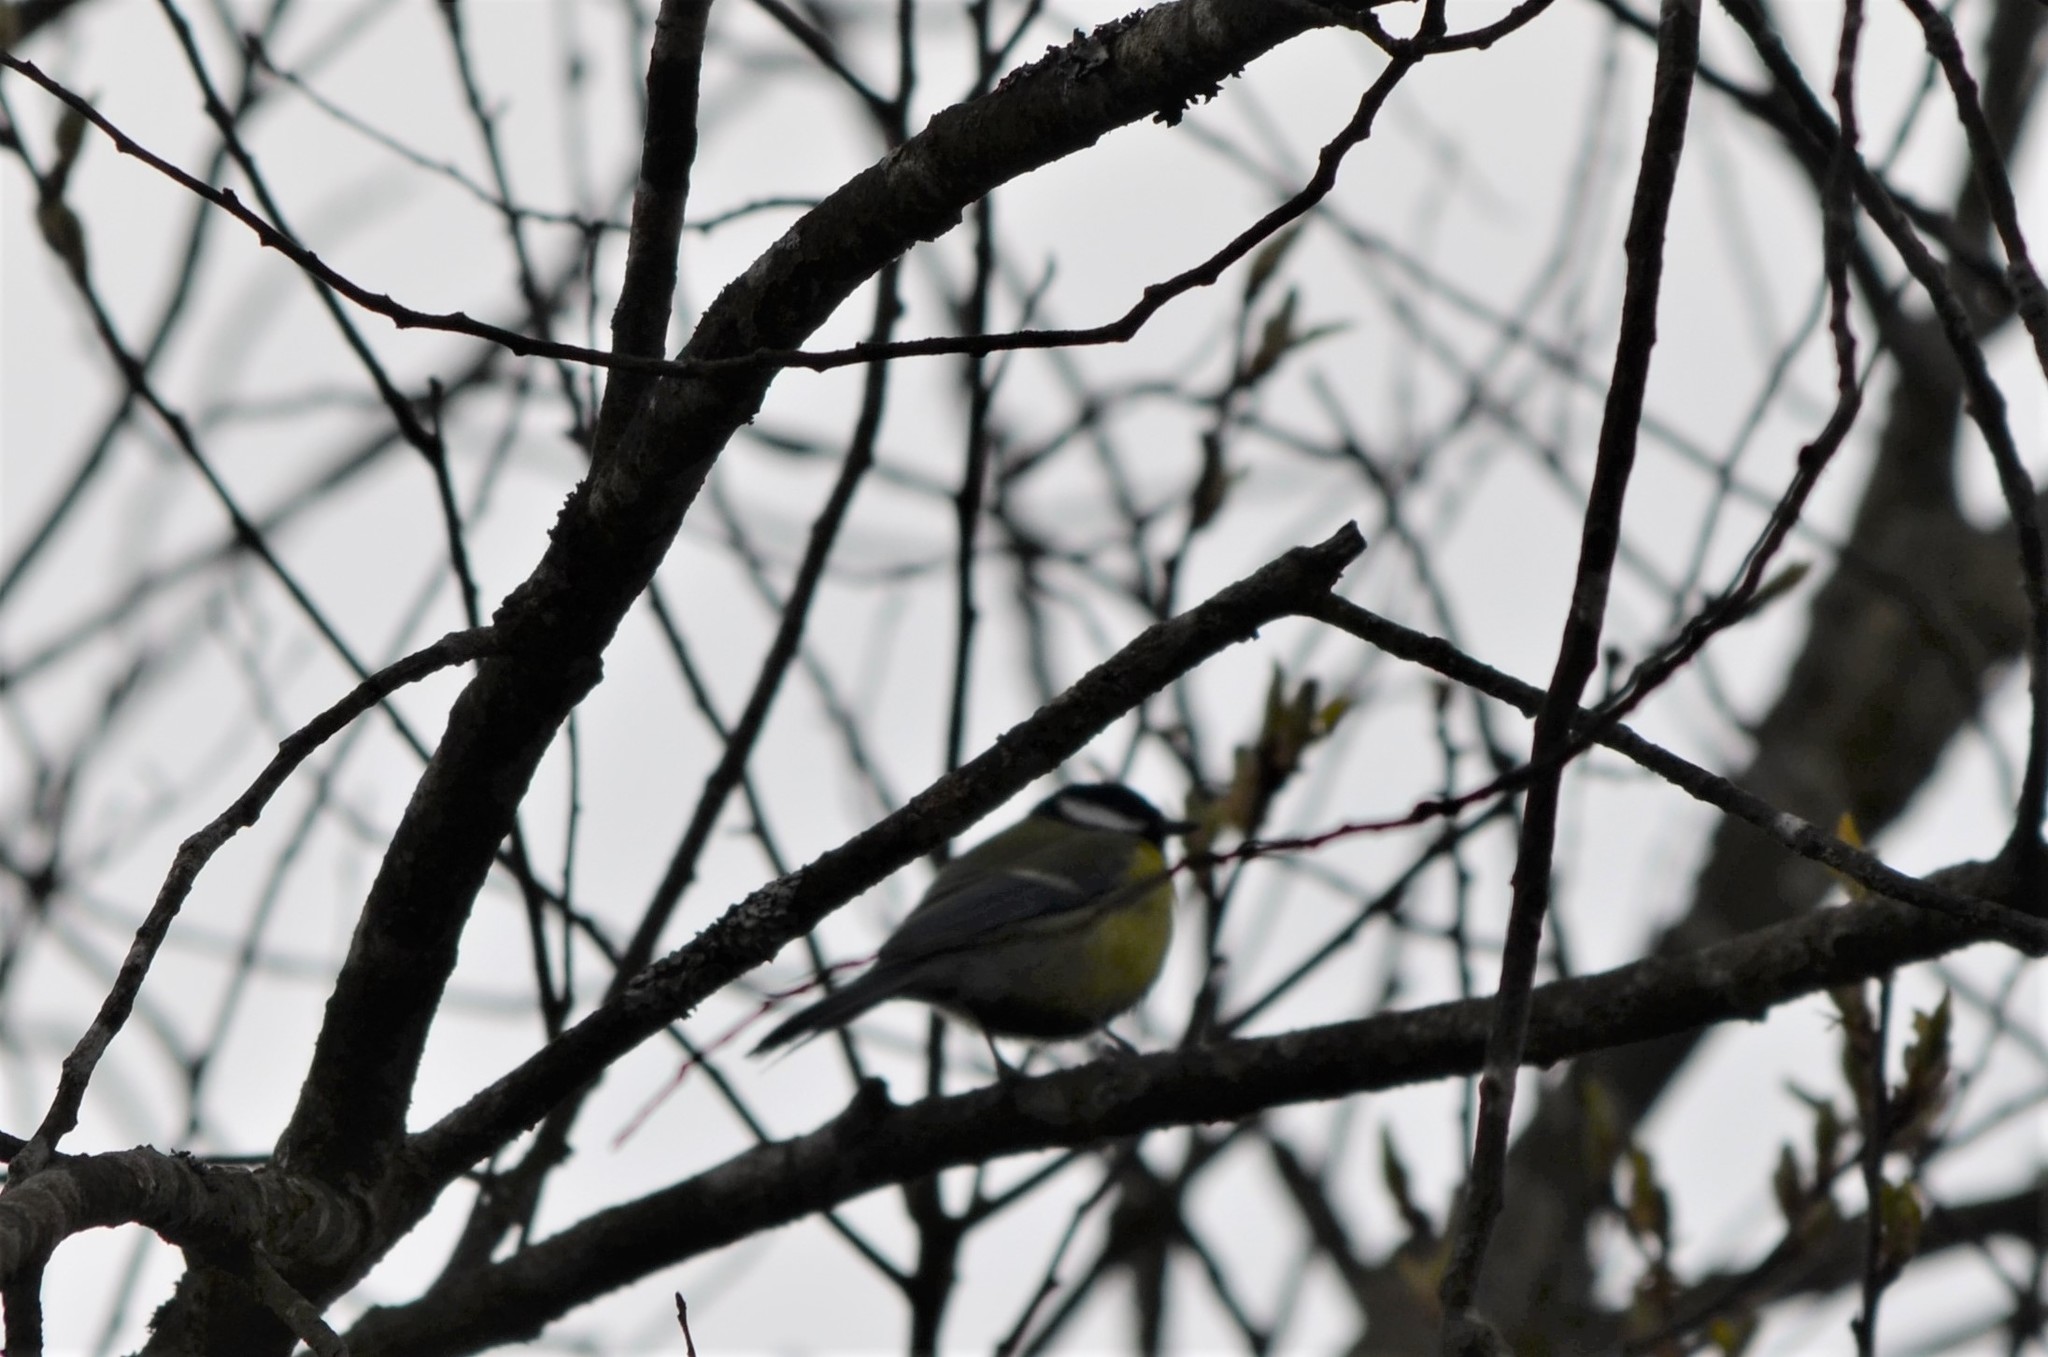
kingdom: Animalia
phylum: Chordata
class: Aves
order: Passeriformes
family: Paridae
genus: Parus
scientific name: Parus major
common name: Great tit
